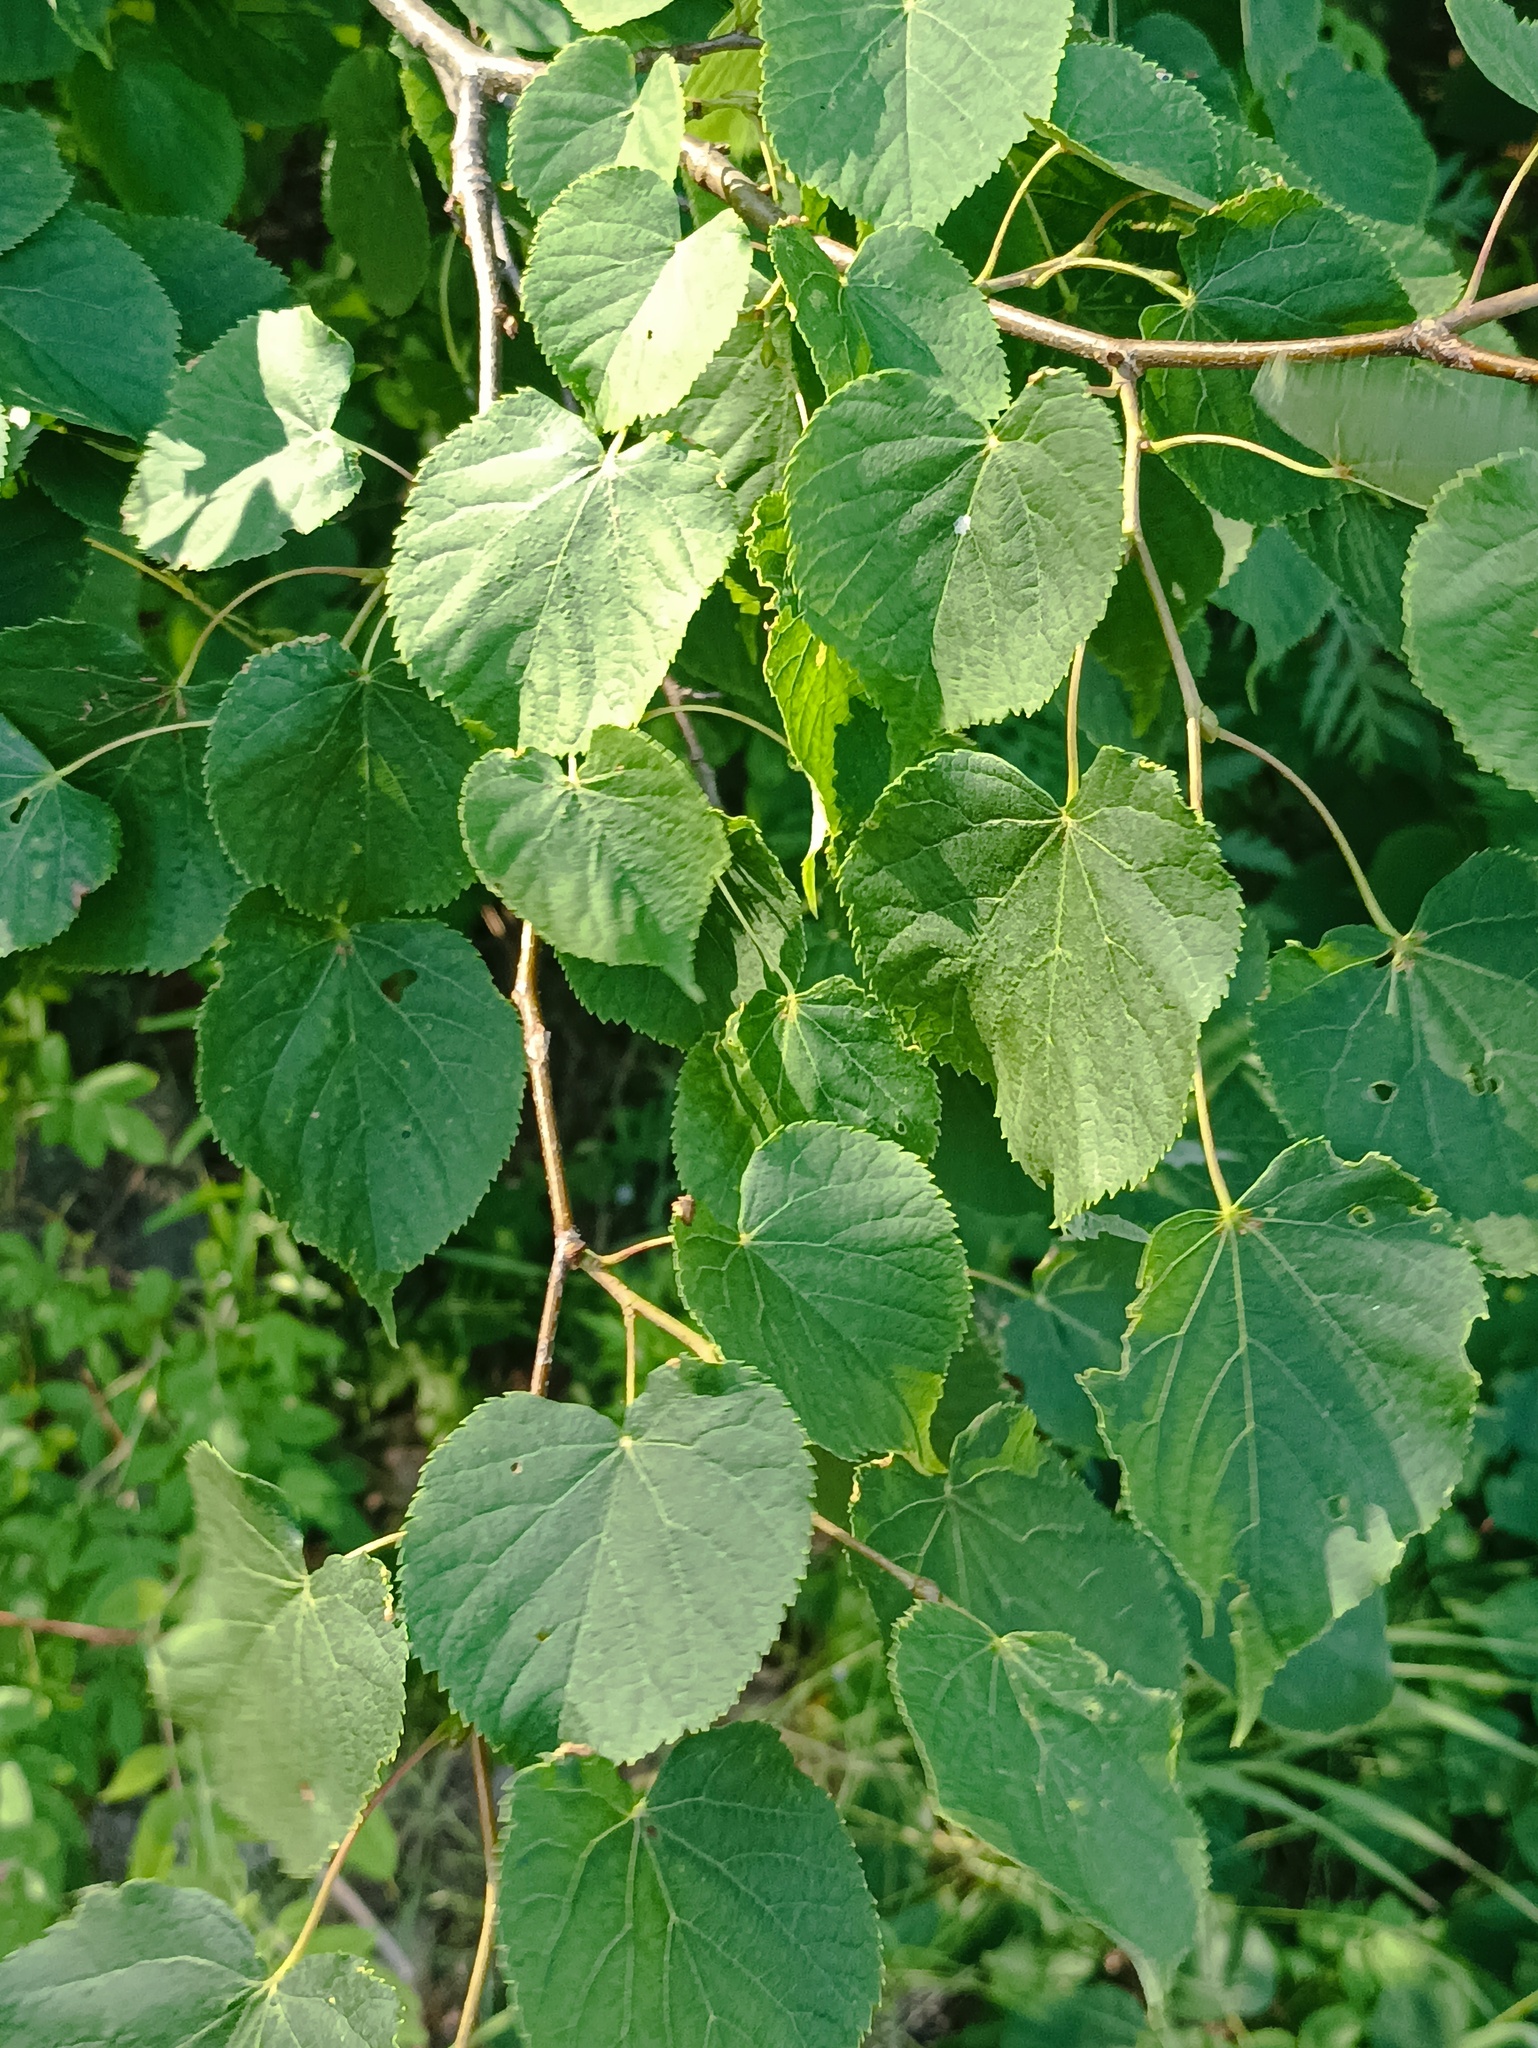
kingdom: Plantae
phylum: Tracheophyta
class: Magnoliopsida
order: Malvales
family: Malvaceae
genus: Tilia
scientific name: Tilia cordata
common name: Small-leaved lime
